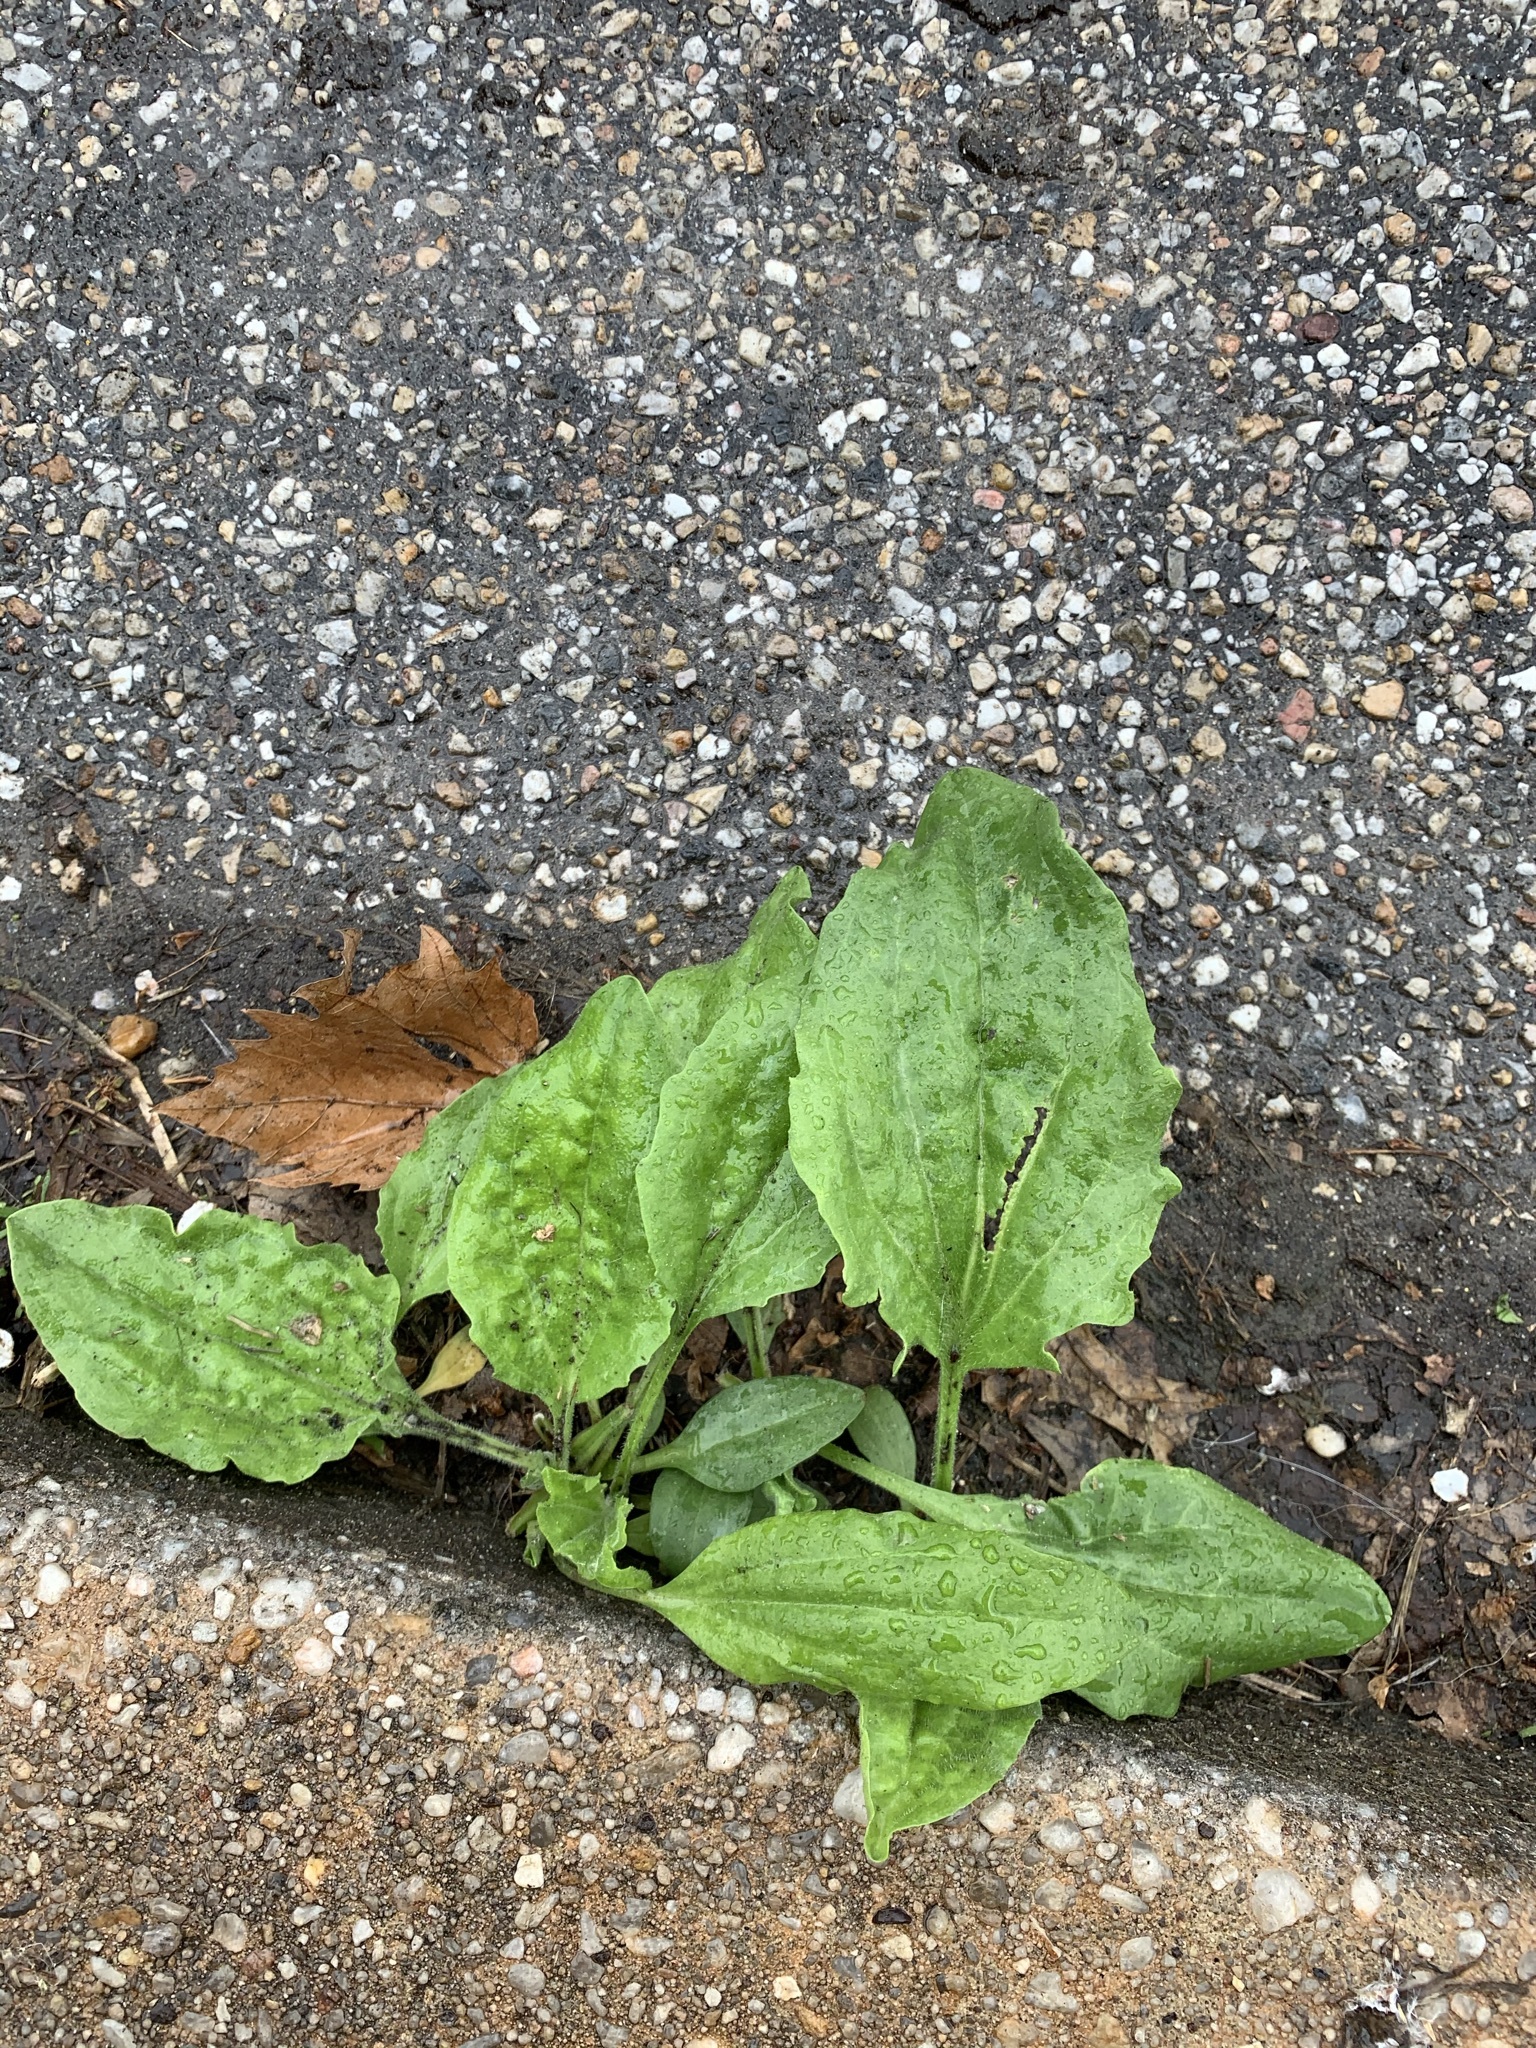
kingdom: Plantae
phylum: Tracheophyta
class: Magnoliopsida
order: Lamiales
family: Plantaginaceae
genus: Plantago
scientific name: Plantago major
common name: Common plantain
